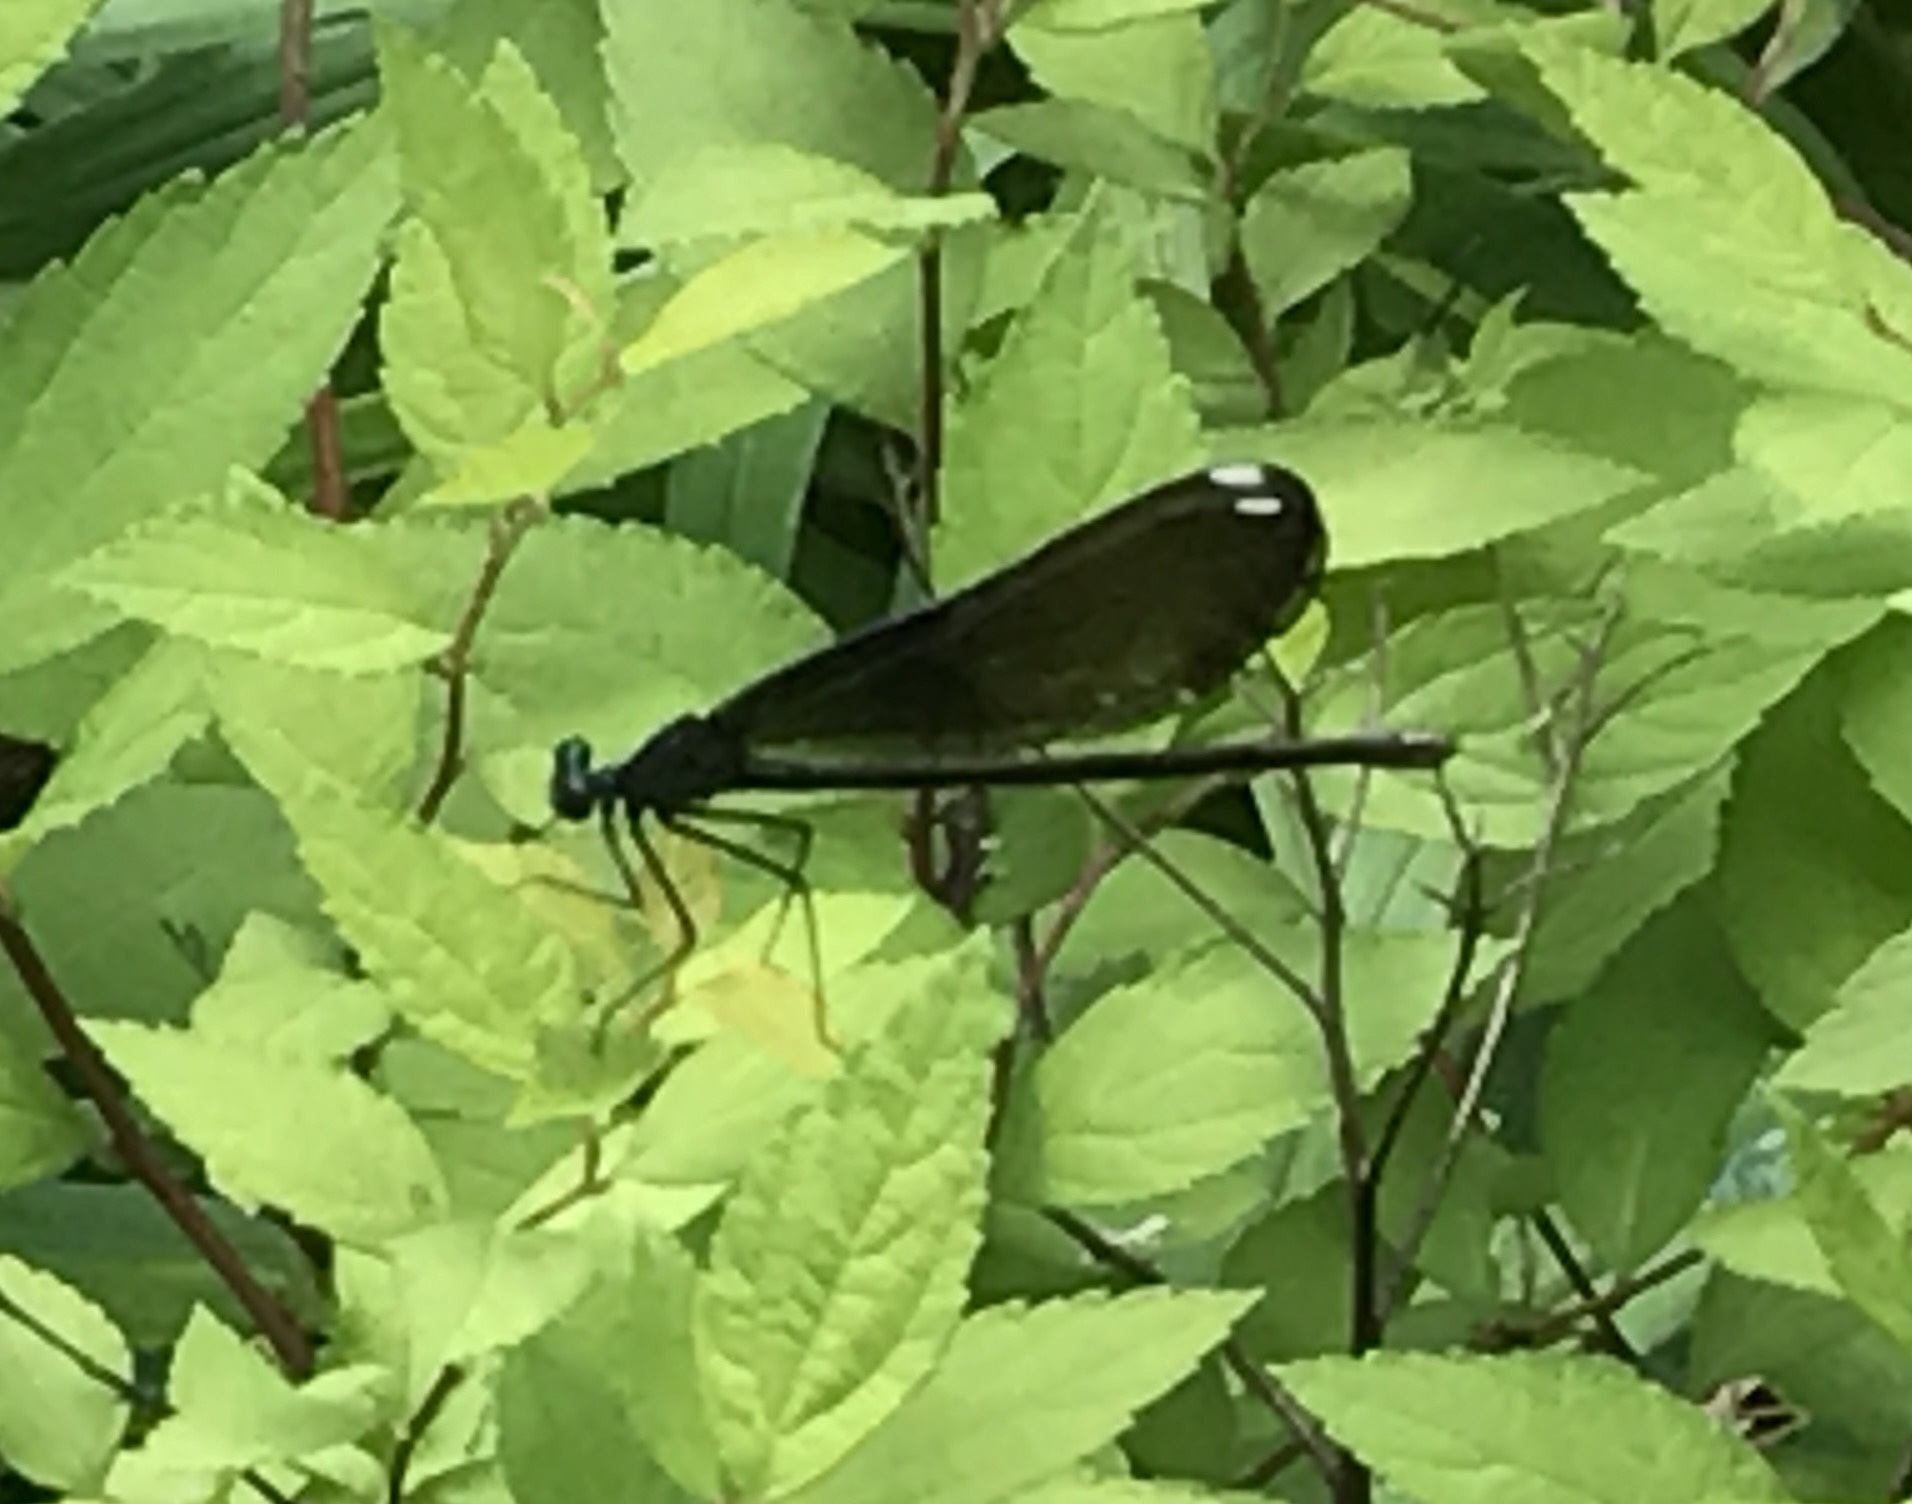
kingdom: Animalia
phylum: Arthropoda
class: Insecta
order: Odonata
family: Calopterygidae
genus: Calopteryx
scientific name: Calopteryx maculata
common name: Ebony jewelwing
